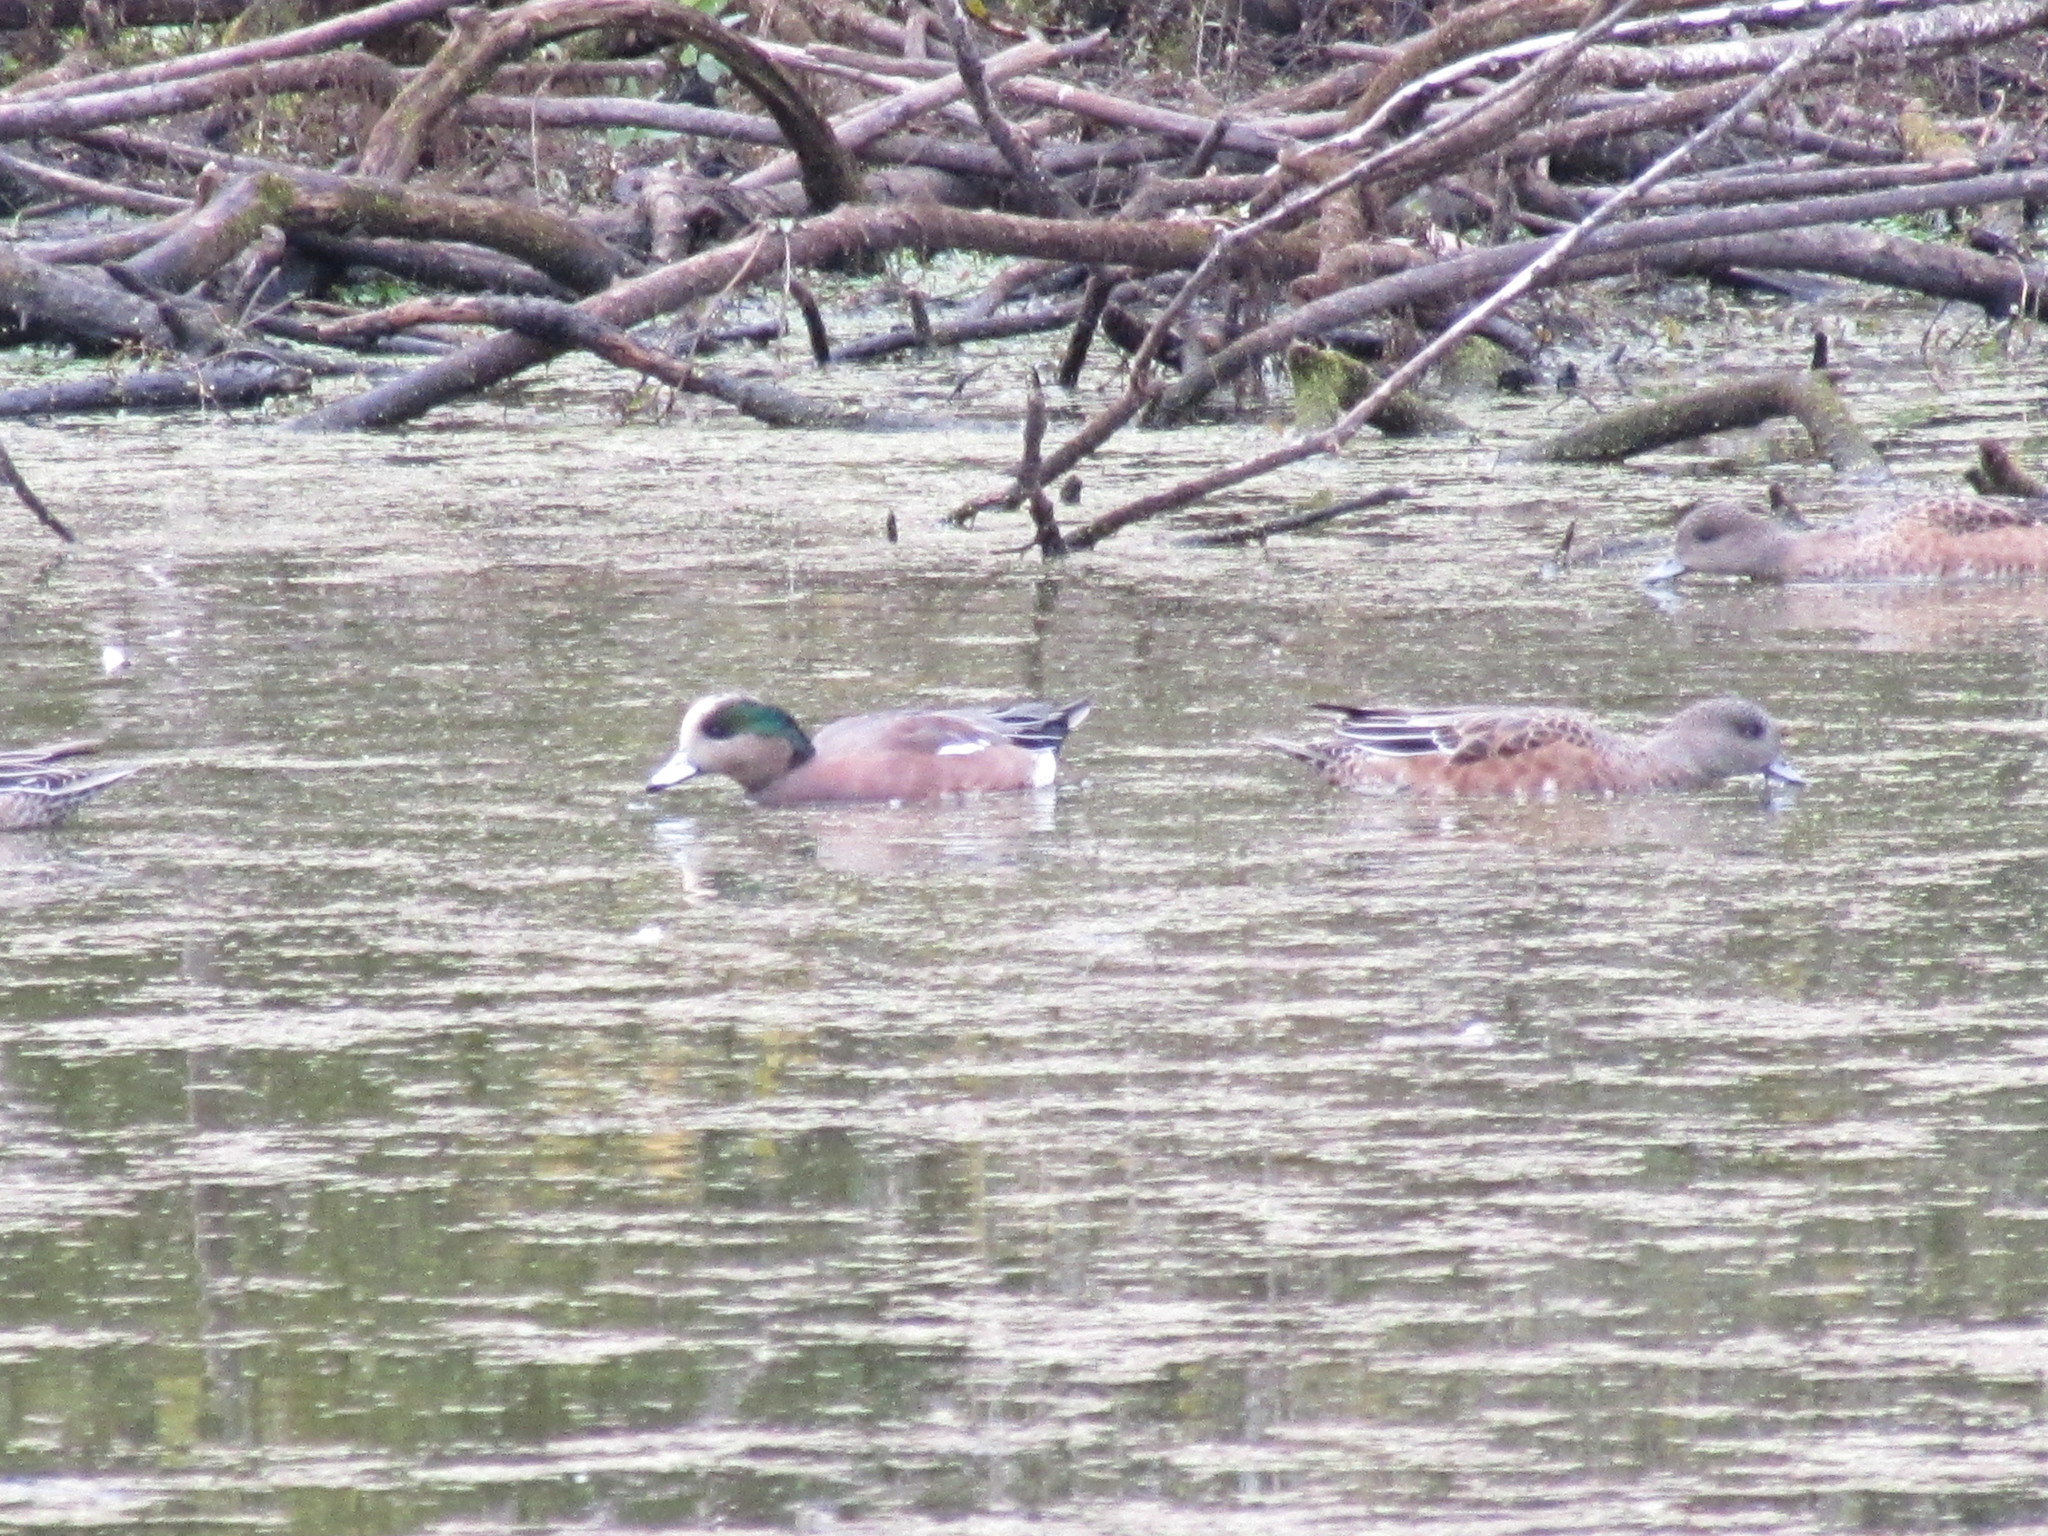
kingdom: Animalia
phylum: Chordata
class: Aves
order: Anseriformes
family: Anatidae
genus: Mareca
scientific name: Mareca americana
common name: American wigeon
